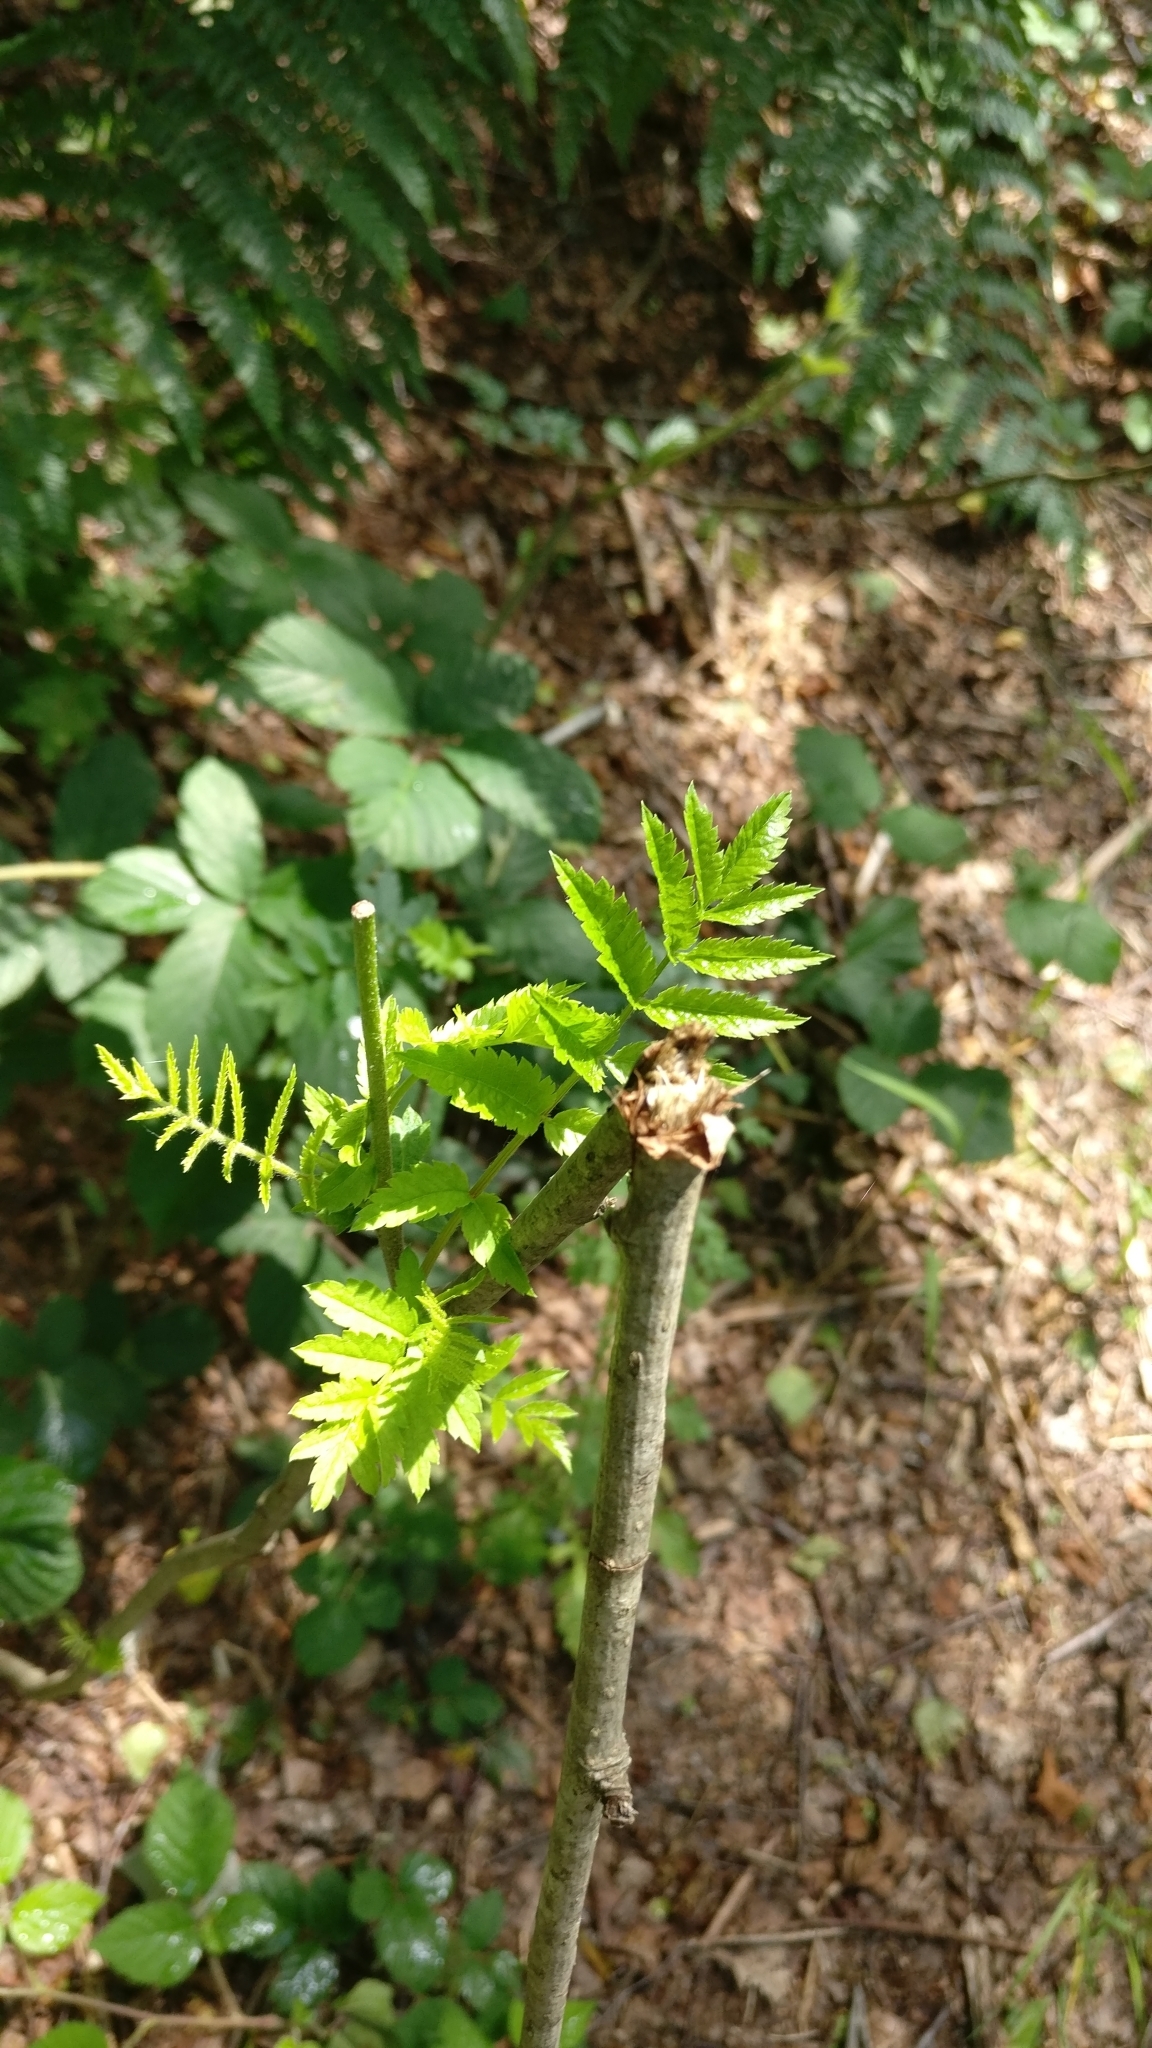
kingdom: Plantae
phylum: Tracheophyta
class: Magnoliopsida
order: Rosales
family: Rosaceae
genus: Sorbus
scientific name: Sorbus aucuparia
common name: Rowan
